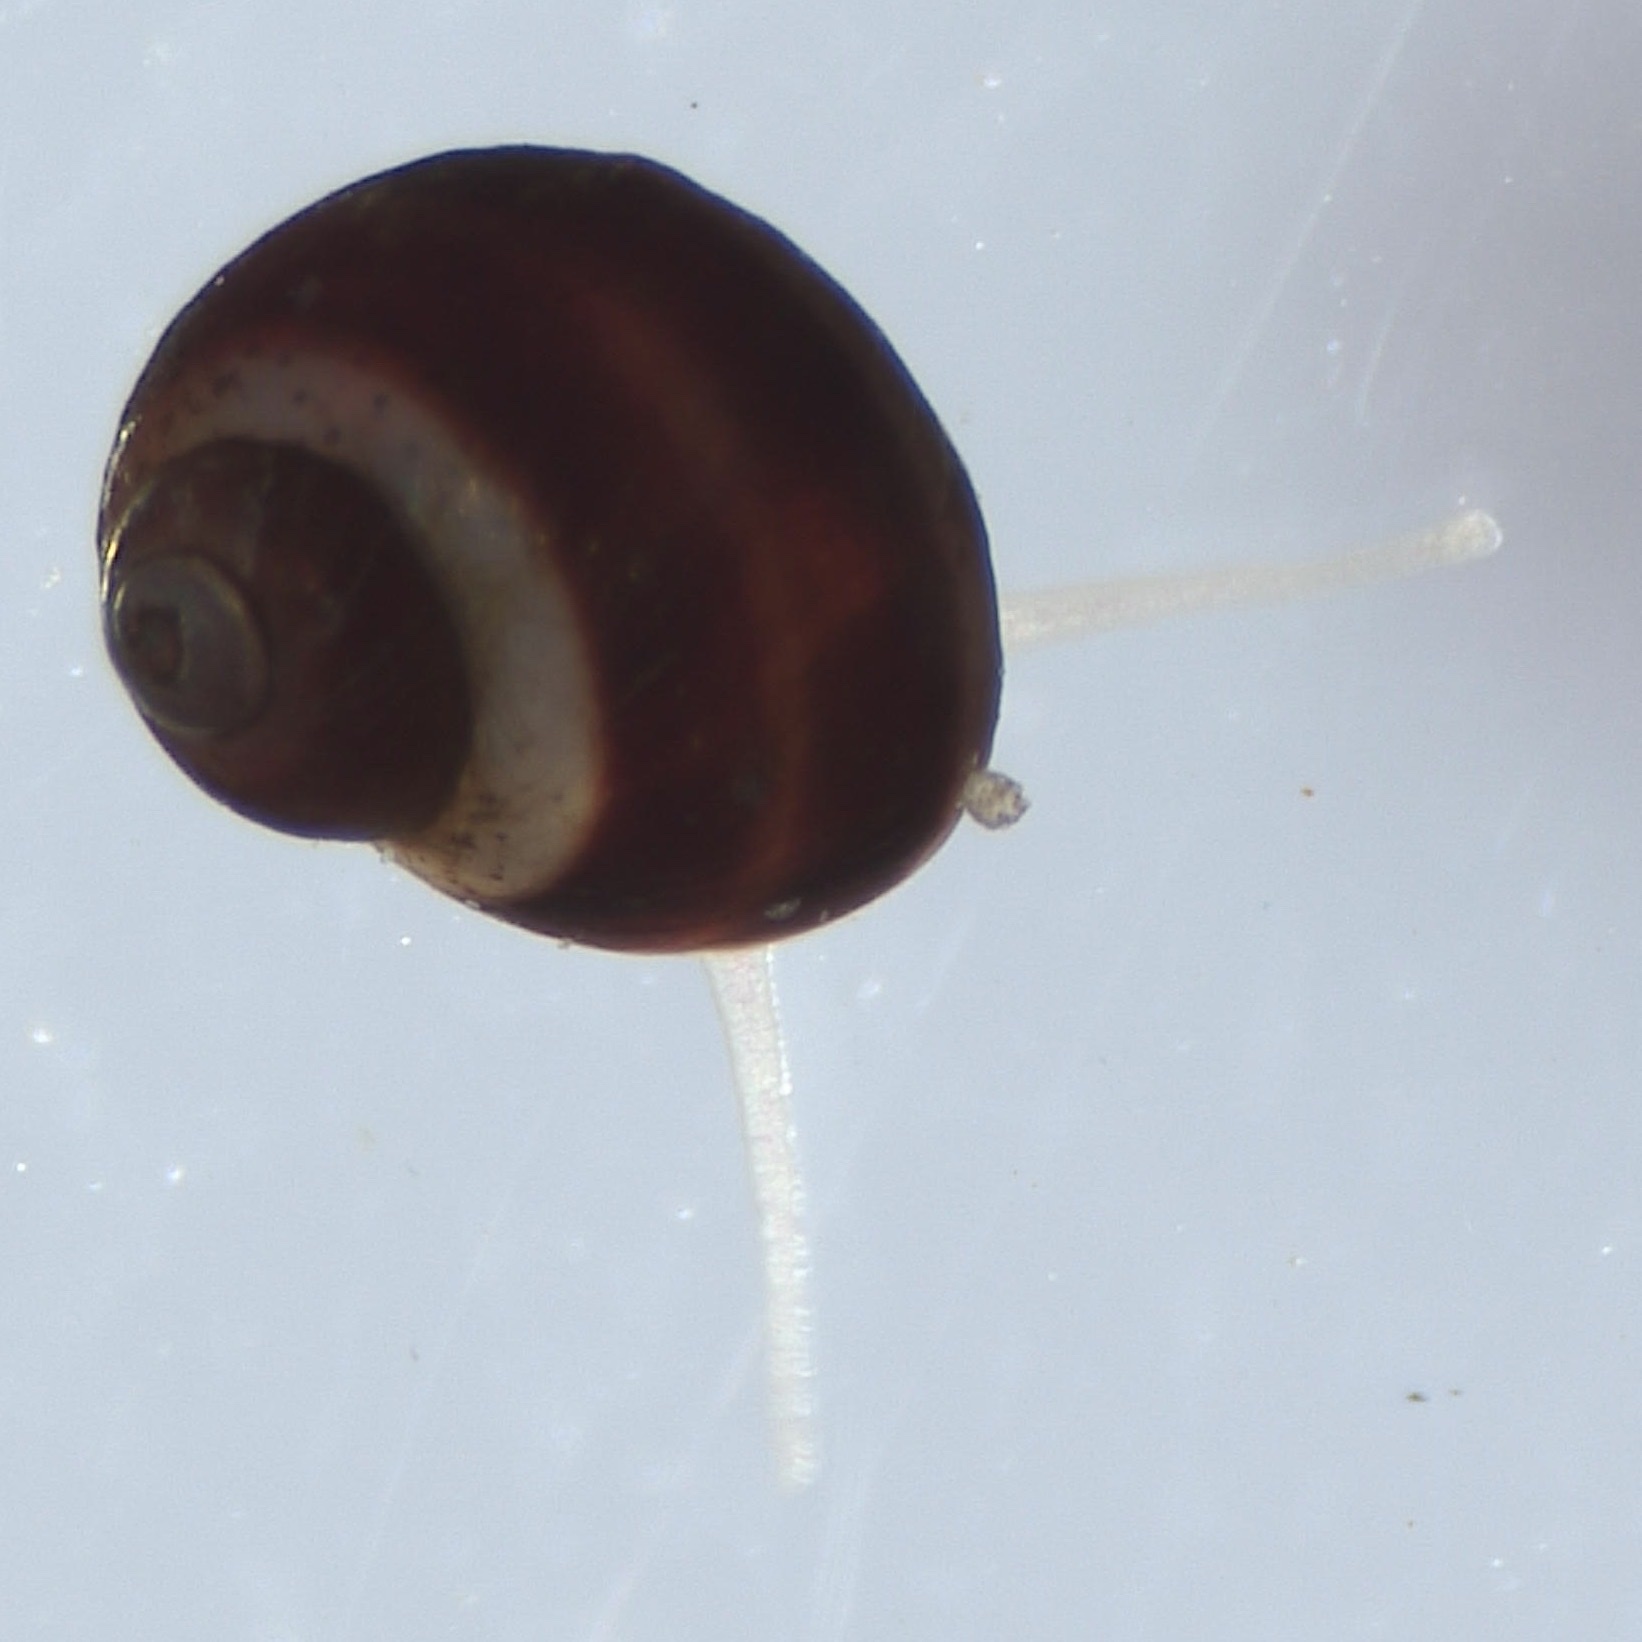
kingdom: Animalia
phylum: Mollusca
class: Gastropoda
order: Littorinimorpha
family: Littorinidae
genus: Lacuna
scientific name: Lacuna vincta
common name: Banded chink shell
